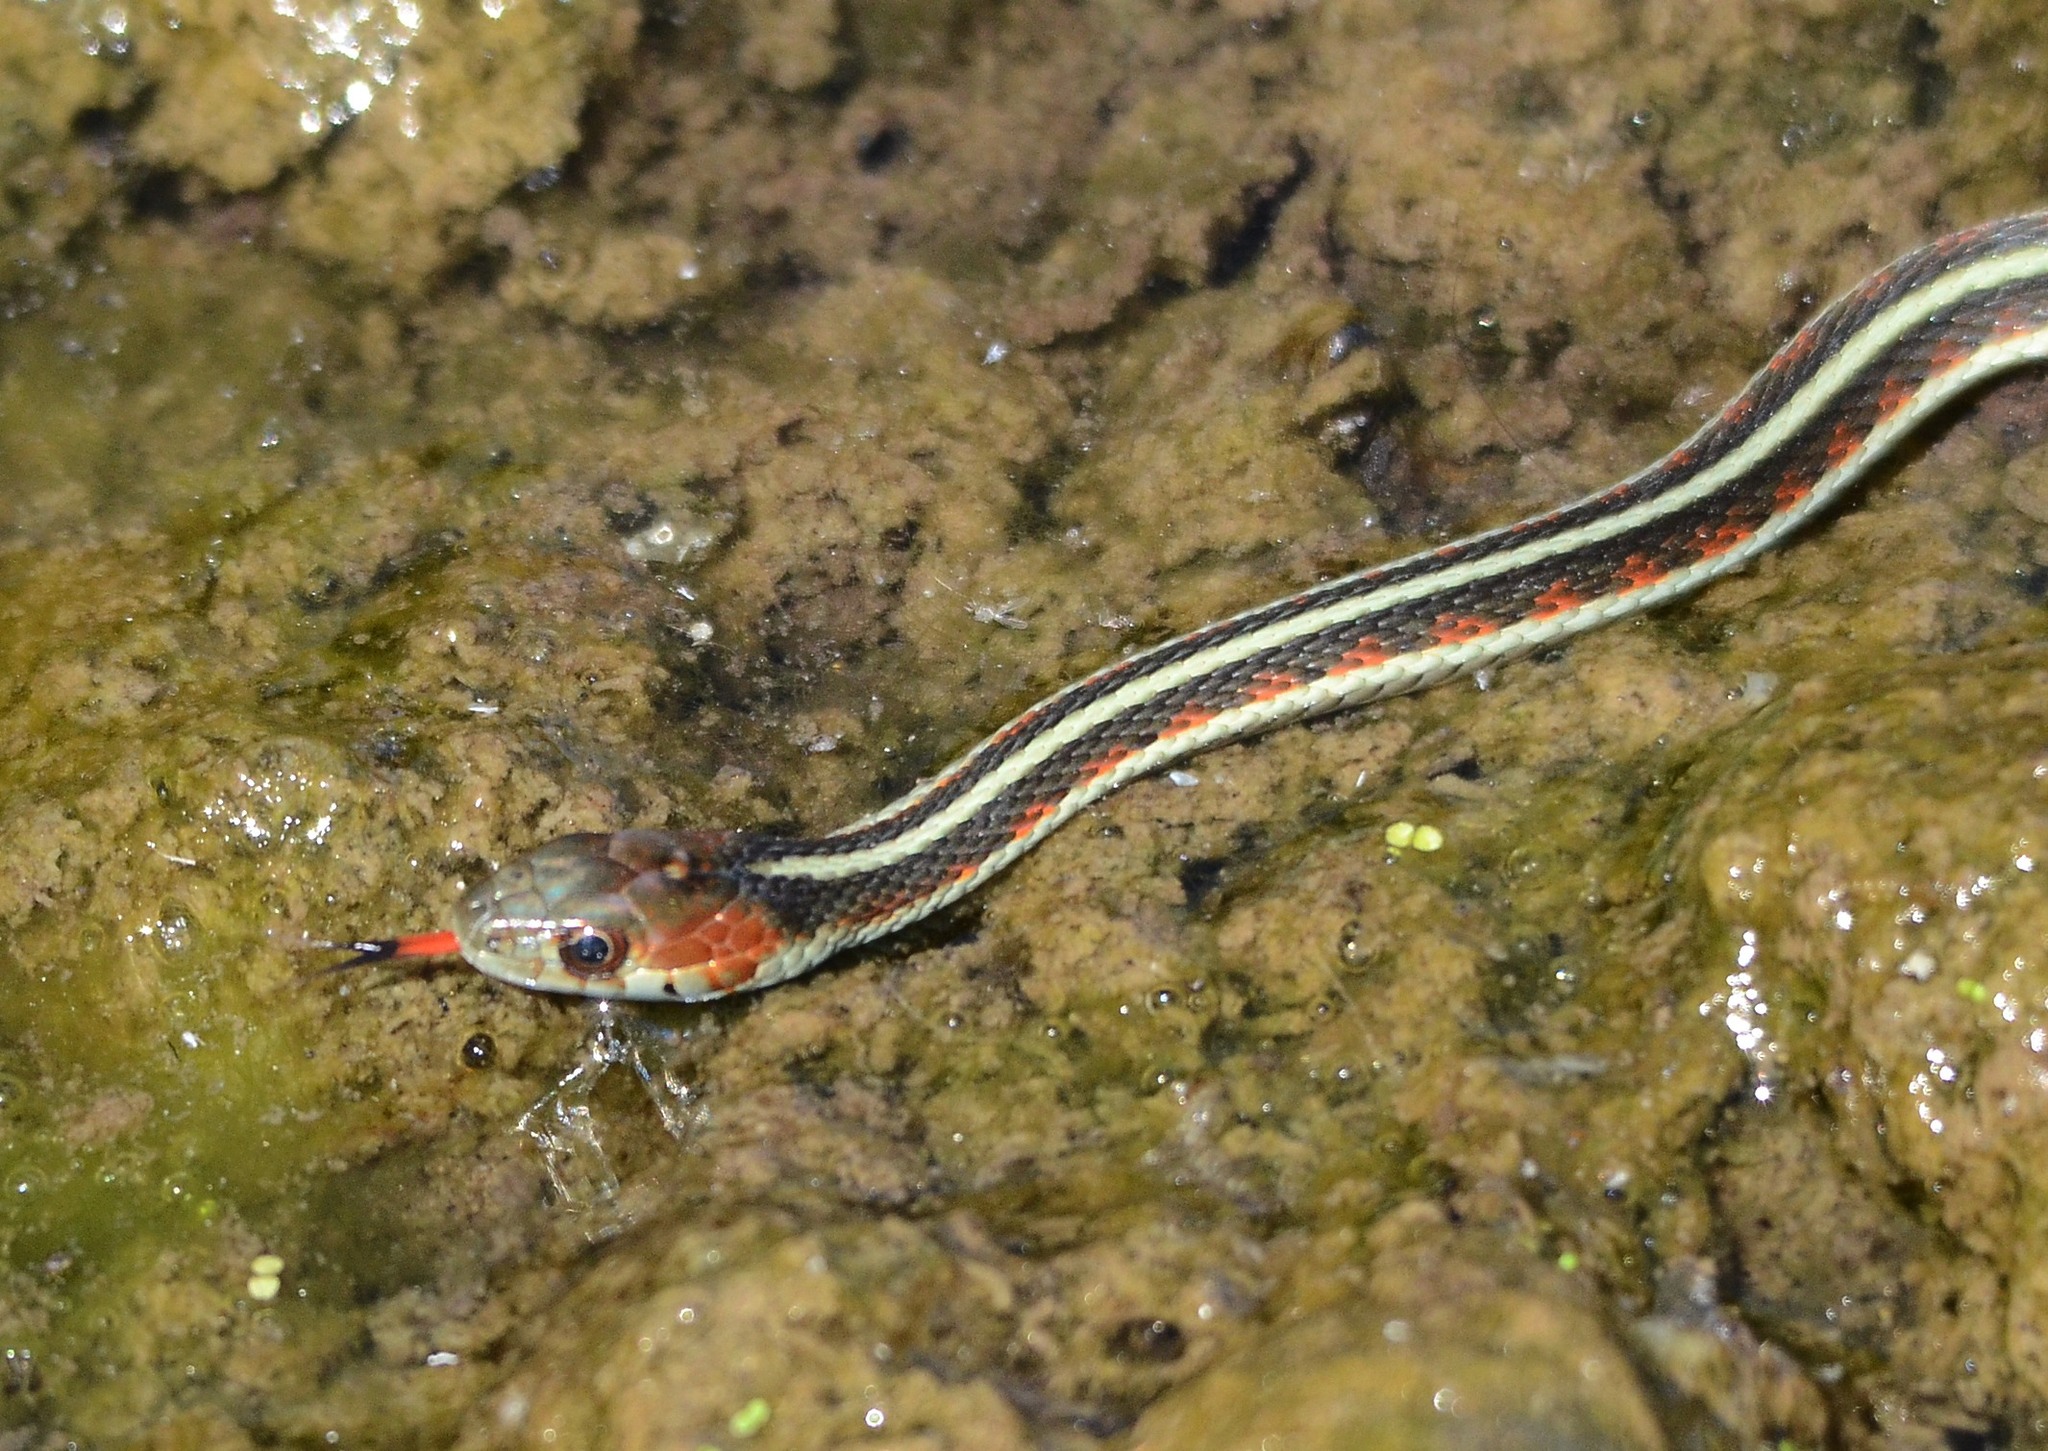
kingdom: Animalia
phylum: Chordata
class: Squamata
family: Colubridae
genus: Thamnophis
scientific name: Thamnophis sirtalis
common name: Common garter snake
